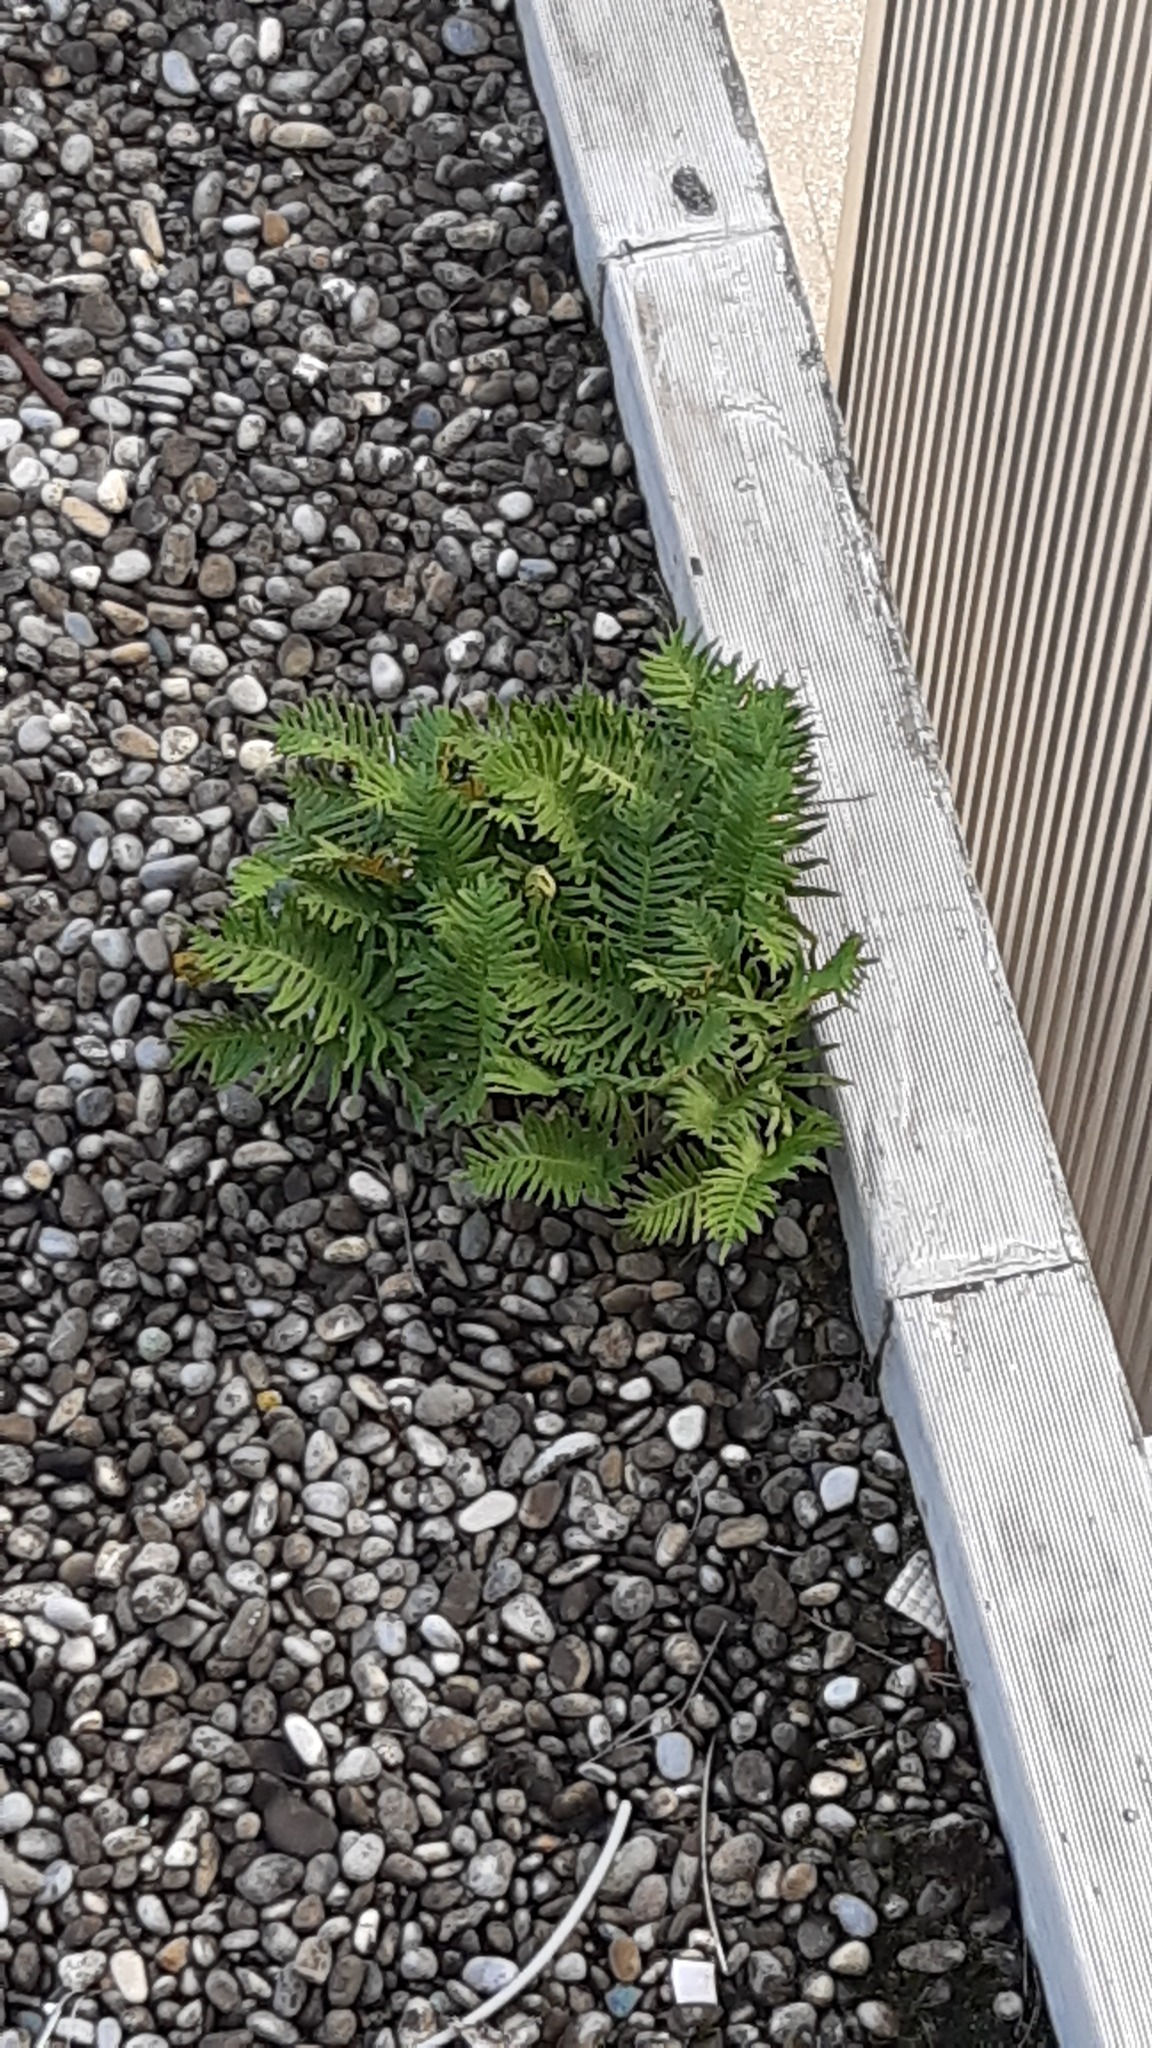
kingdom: Plantae
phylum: Tracheophyta
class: Polypodiopsida
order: Polypodiales
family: Polypodiaceae
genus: Polypodium
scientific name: Polypodium cambricum
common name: Southern polypody
